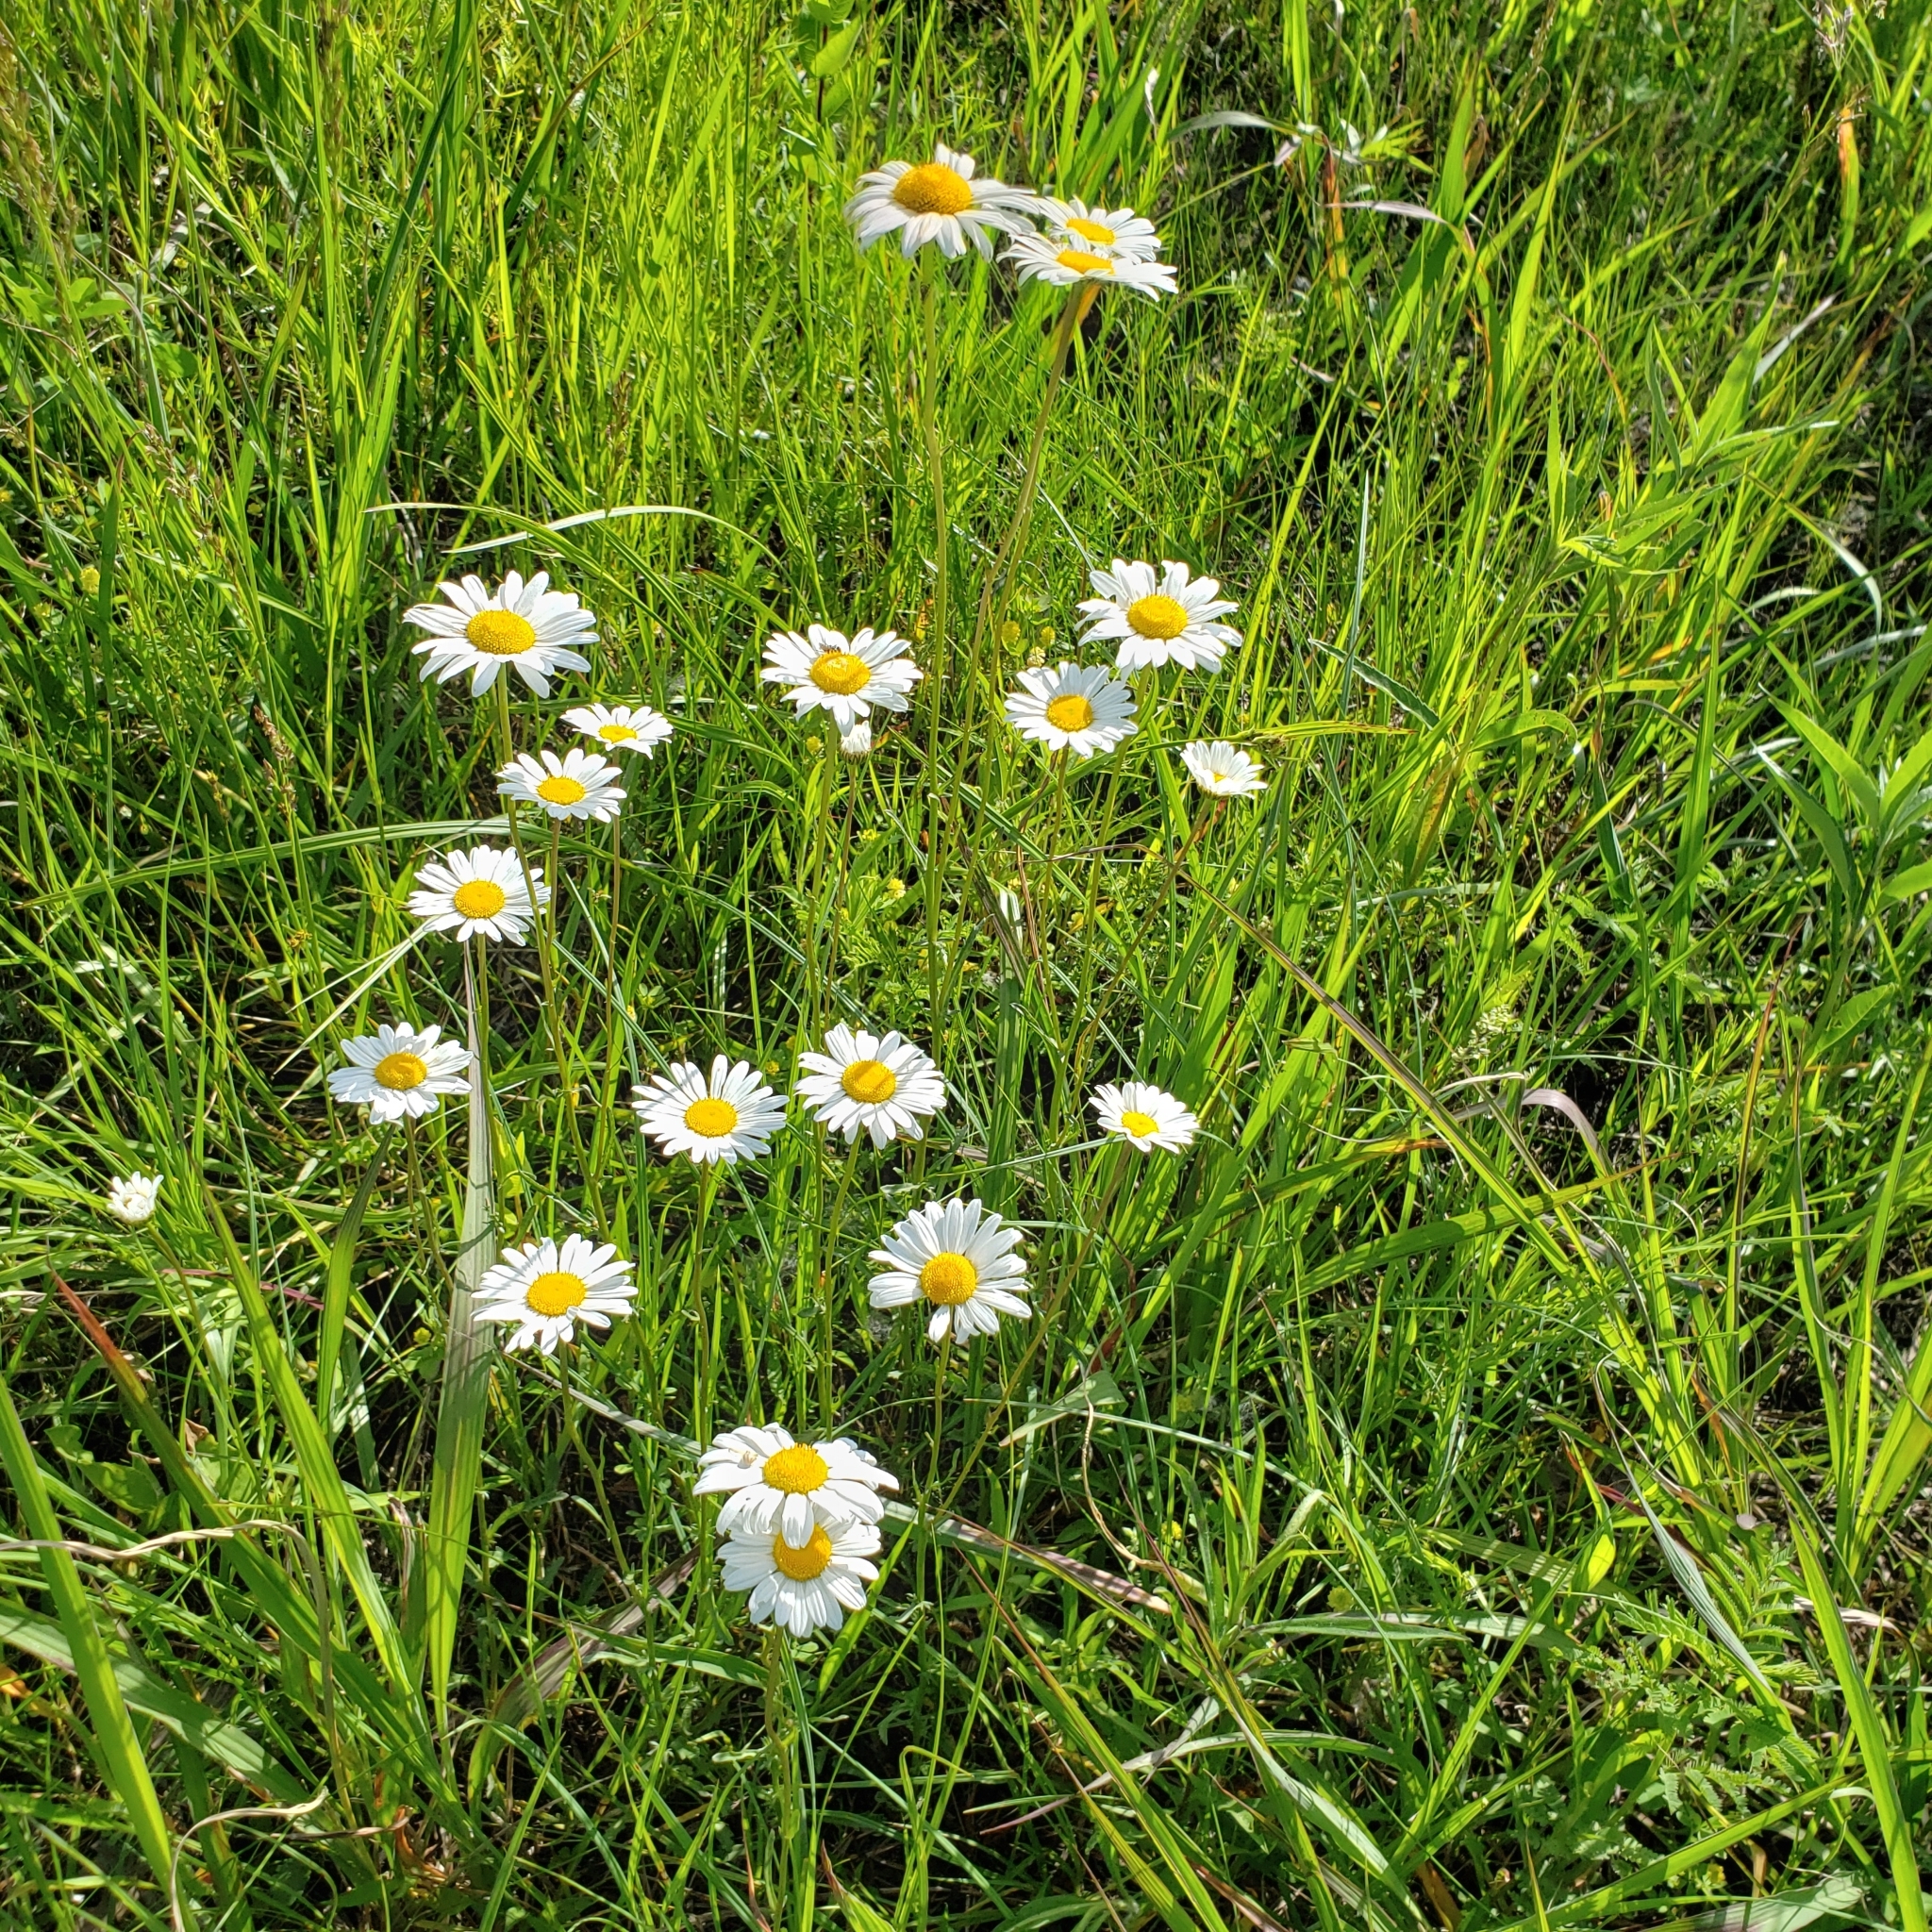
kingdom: Plantae
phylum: Tracheophyta
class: Magnoliopsida
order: Asterales
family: Asteraceae
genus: Leucanthemum
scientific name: Leucanthemum vulgare
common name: Oxeye daisy
